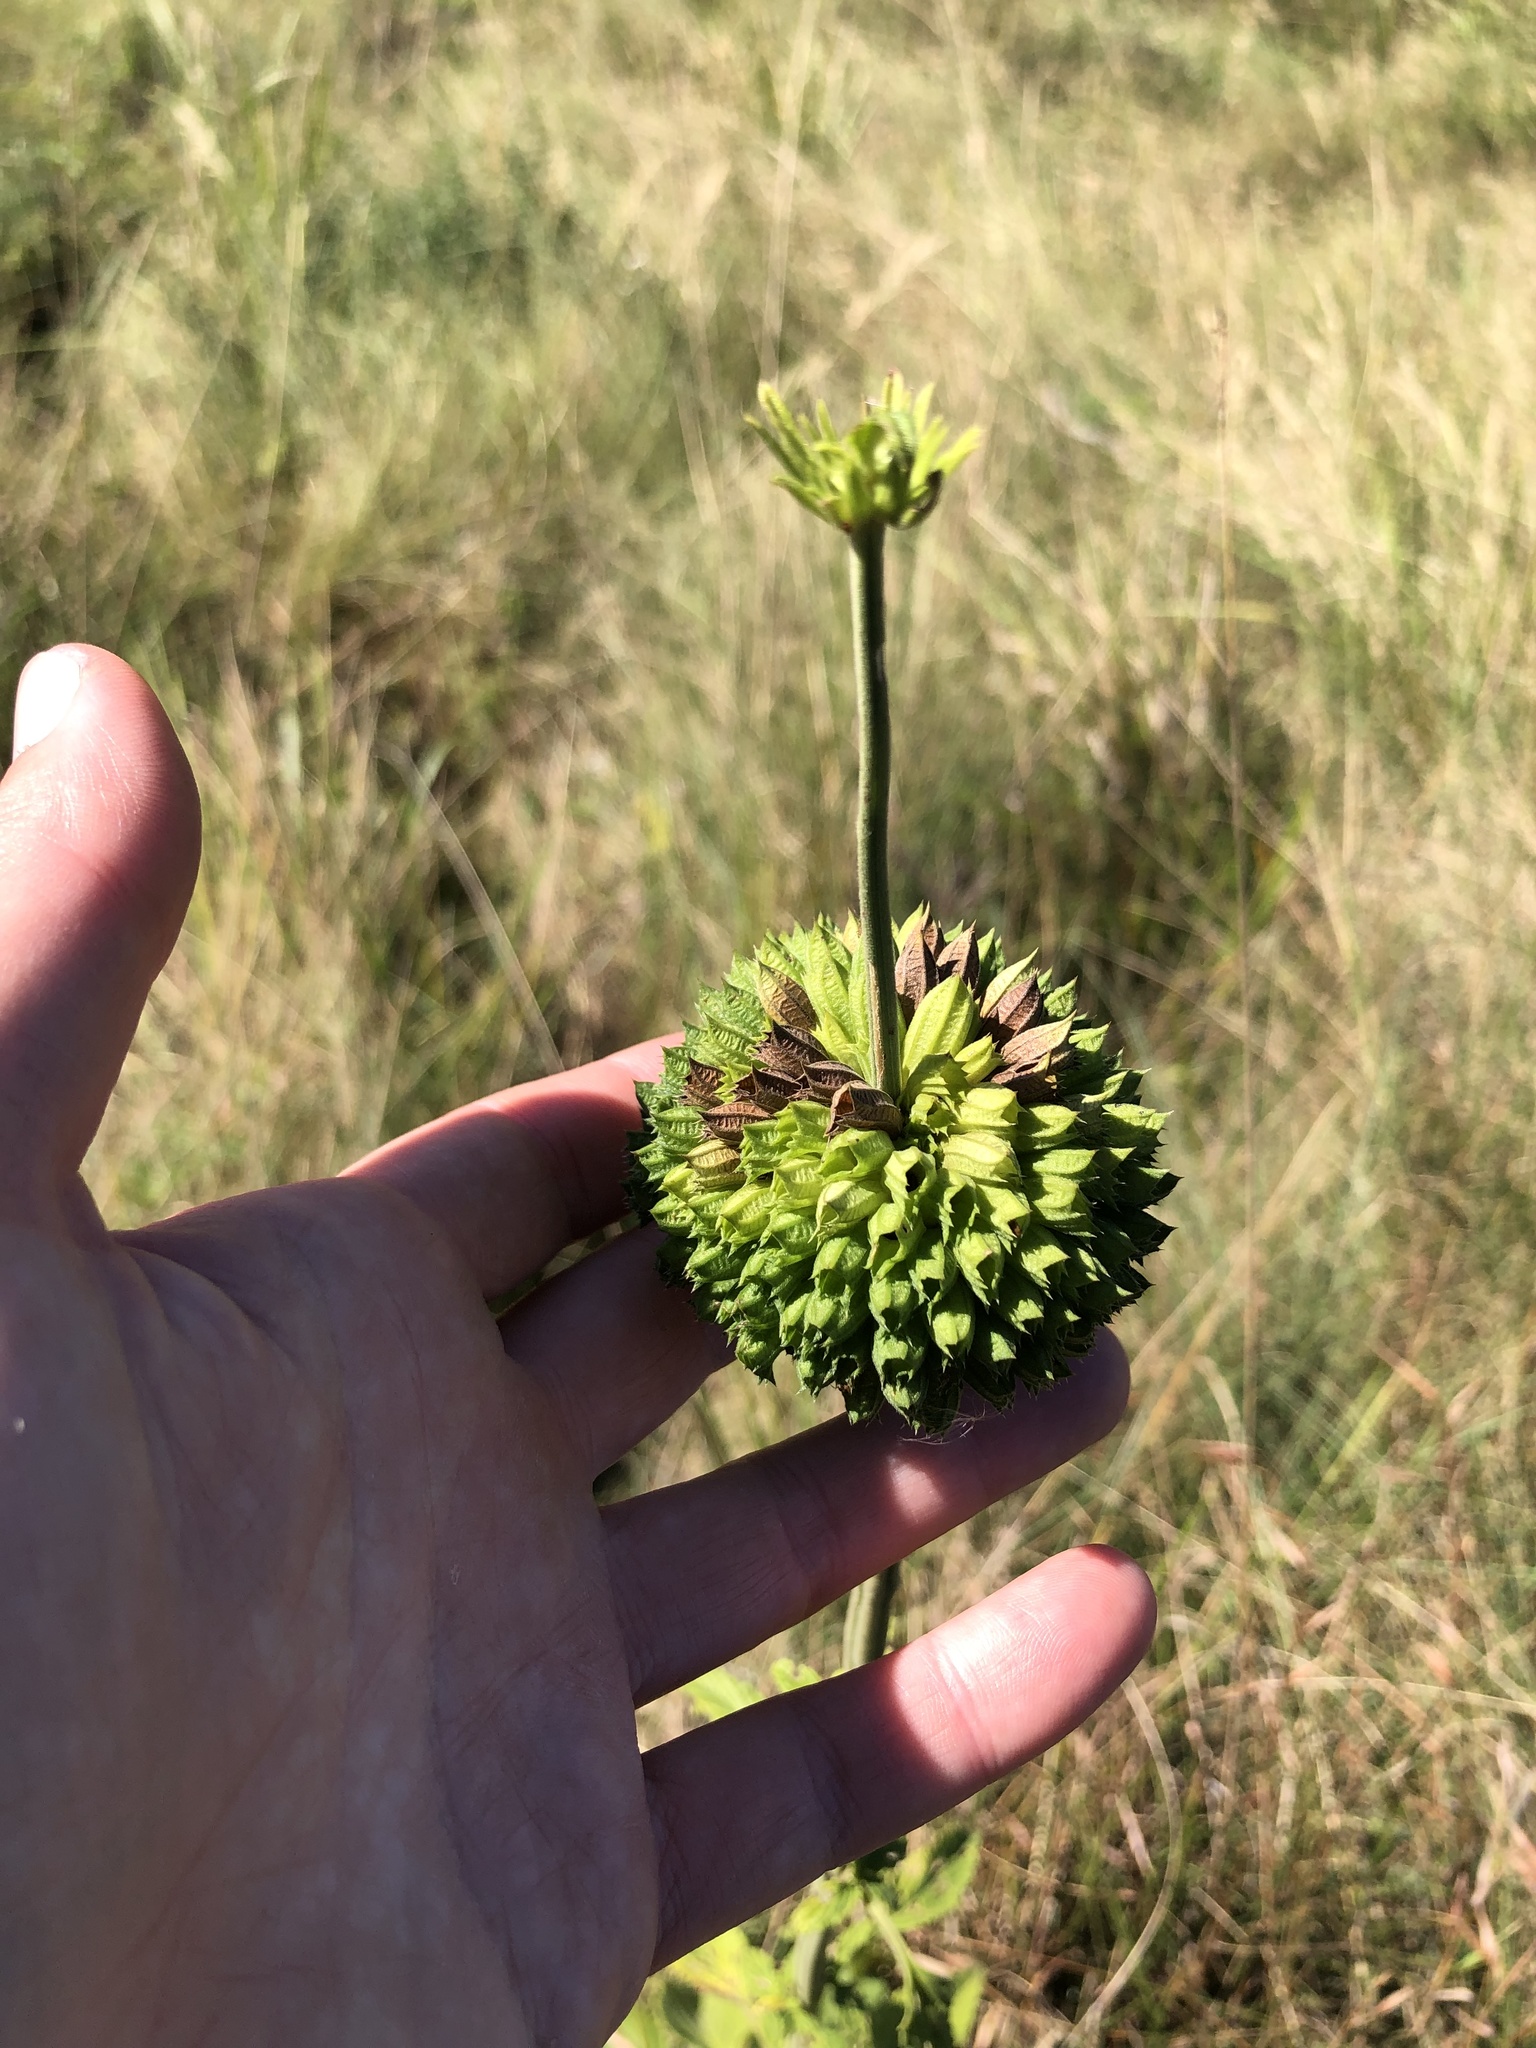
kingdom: Plantae
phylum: Tracheophyta
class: Magnoliopsida
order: Lamiales
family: Lamiaceae
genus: Leonotis
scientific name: Leonotis ocymifolia
